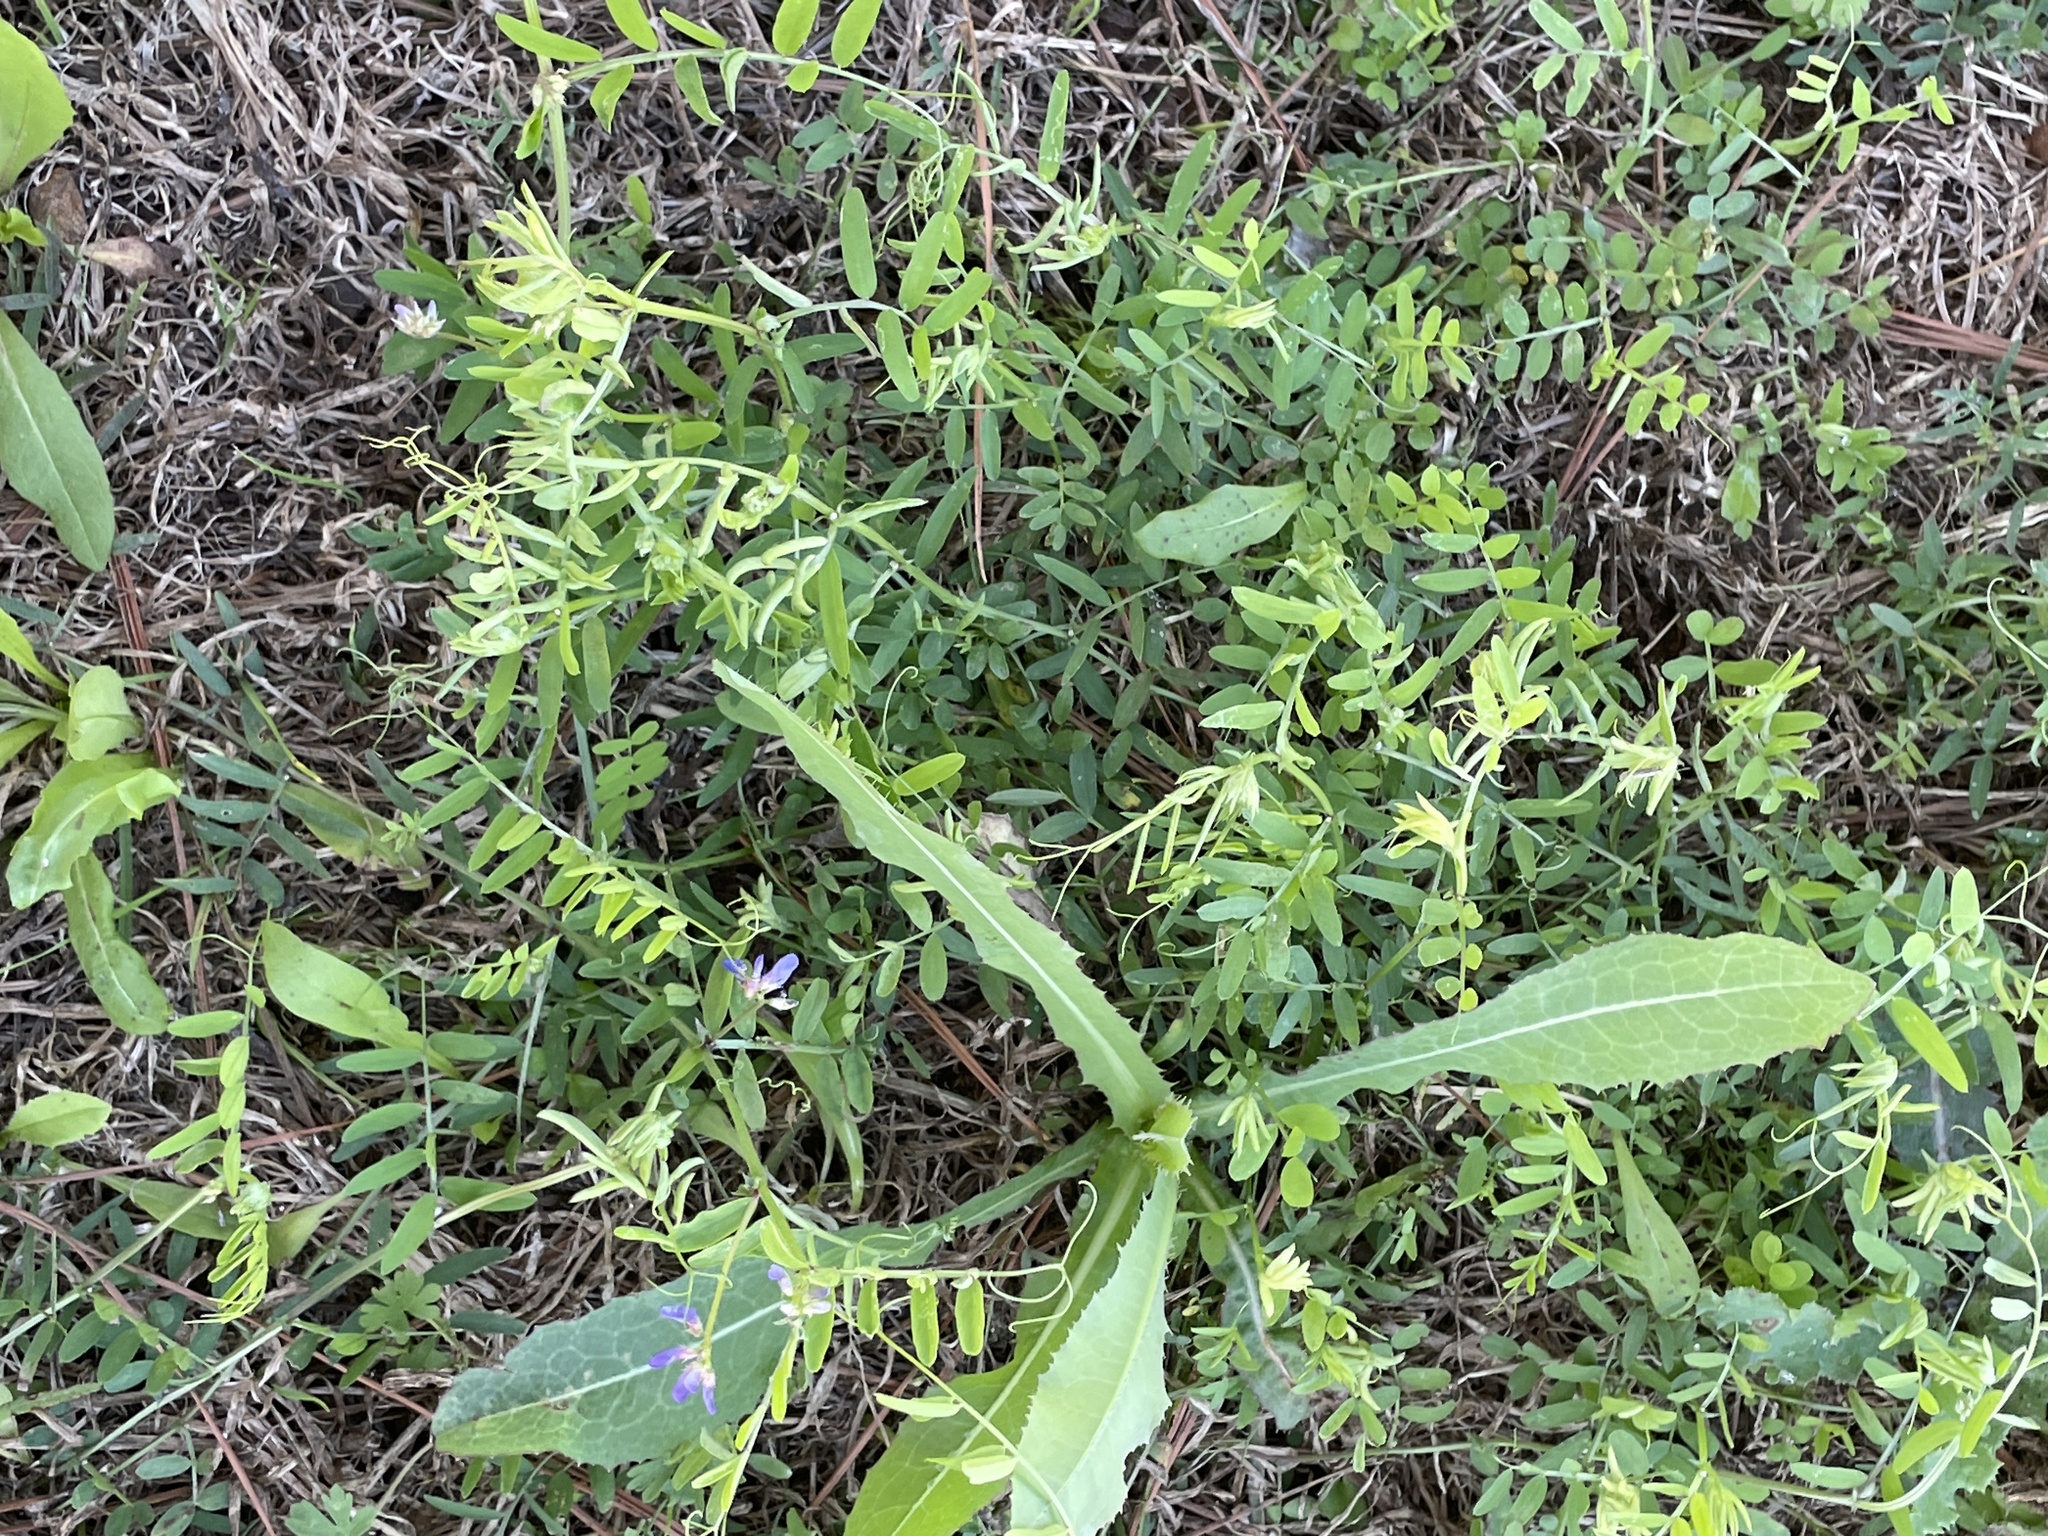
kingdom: Plantae
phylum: Tracheophyta
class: Magnoliopsida
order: Fabales
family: Fabaceae
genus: Vicia
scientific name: Vicia ludoviciana
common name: Louisiana vetch
